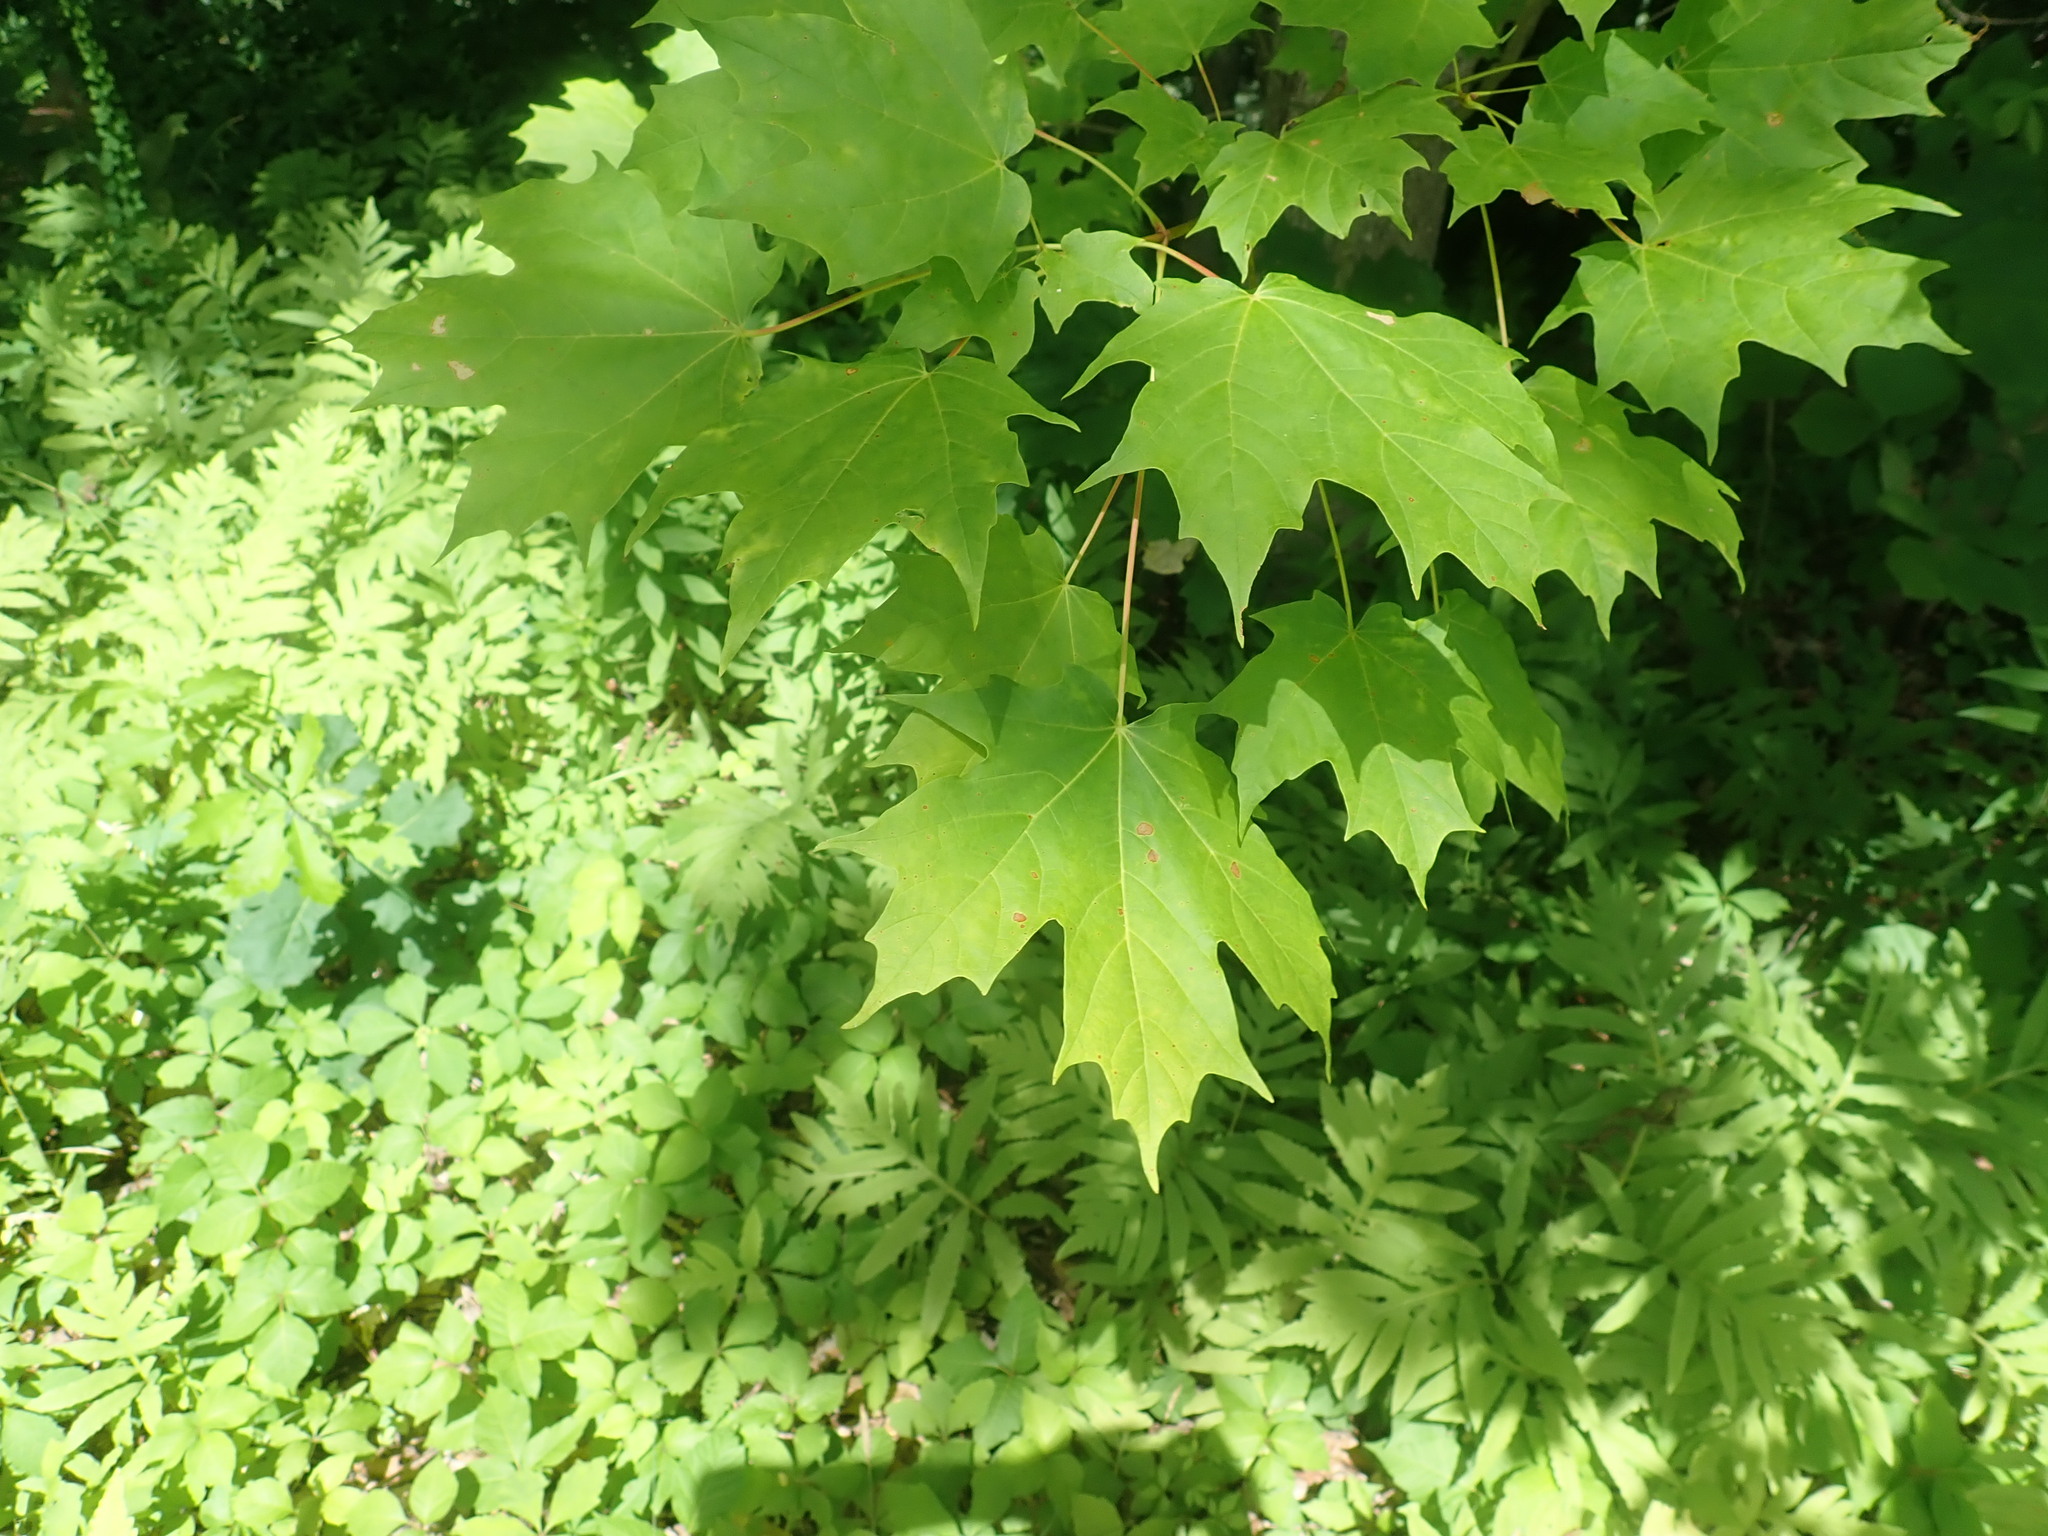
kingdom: Plantae
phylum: Tracheophyta
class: Magnoliopsida
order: Sapindales
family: Sapindaceae
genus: Acer
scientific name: Acer saccharum
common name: Sugar maple
